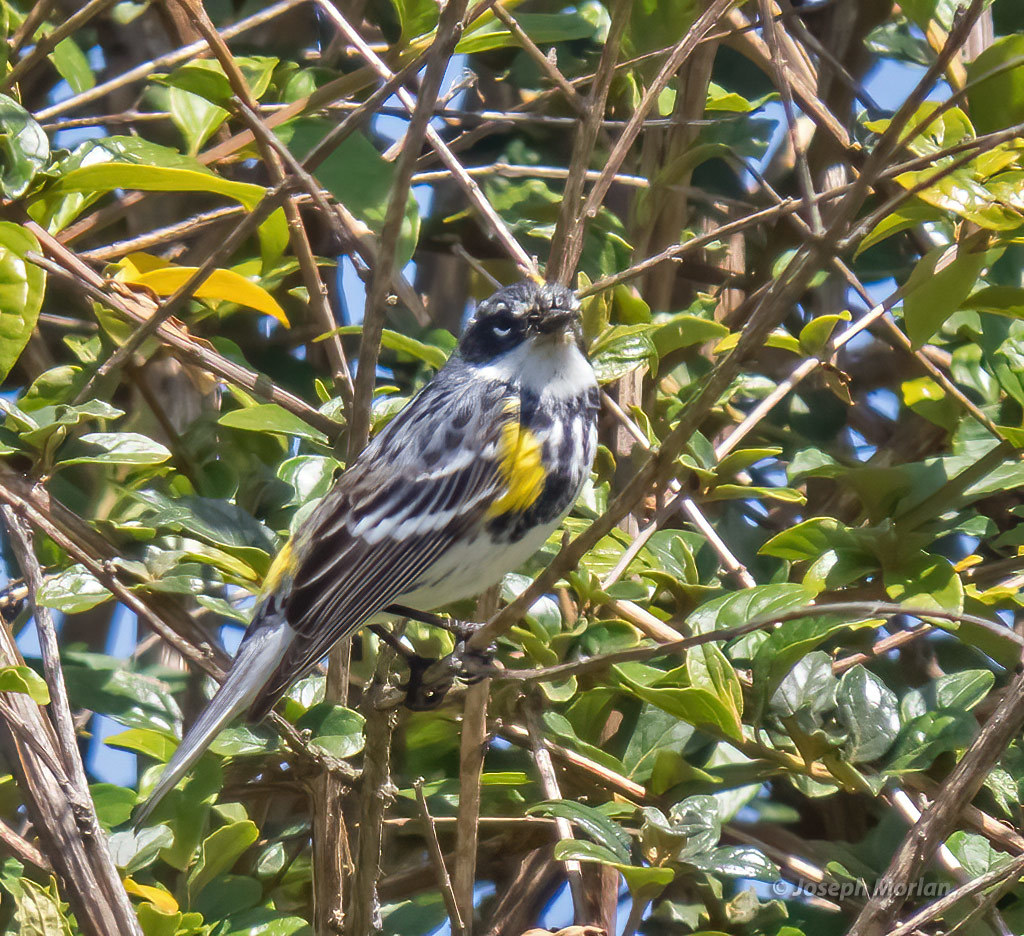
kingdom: Animalia
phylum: Chordata
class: Aves
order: Passeriformes
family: Parulidae
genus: Setophaga
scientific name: Setophaga coronata
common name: Myrtle warbler
